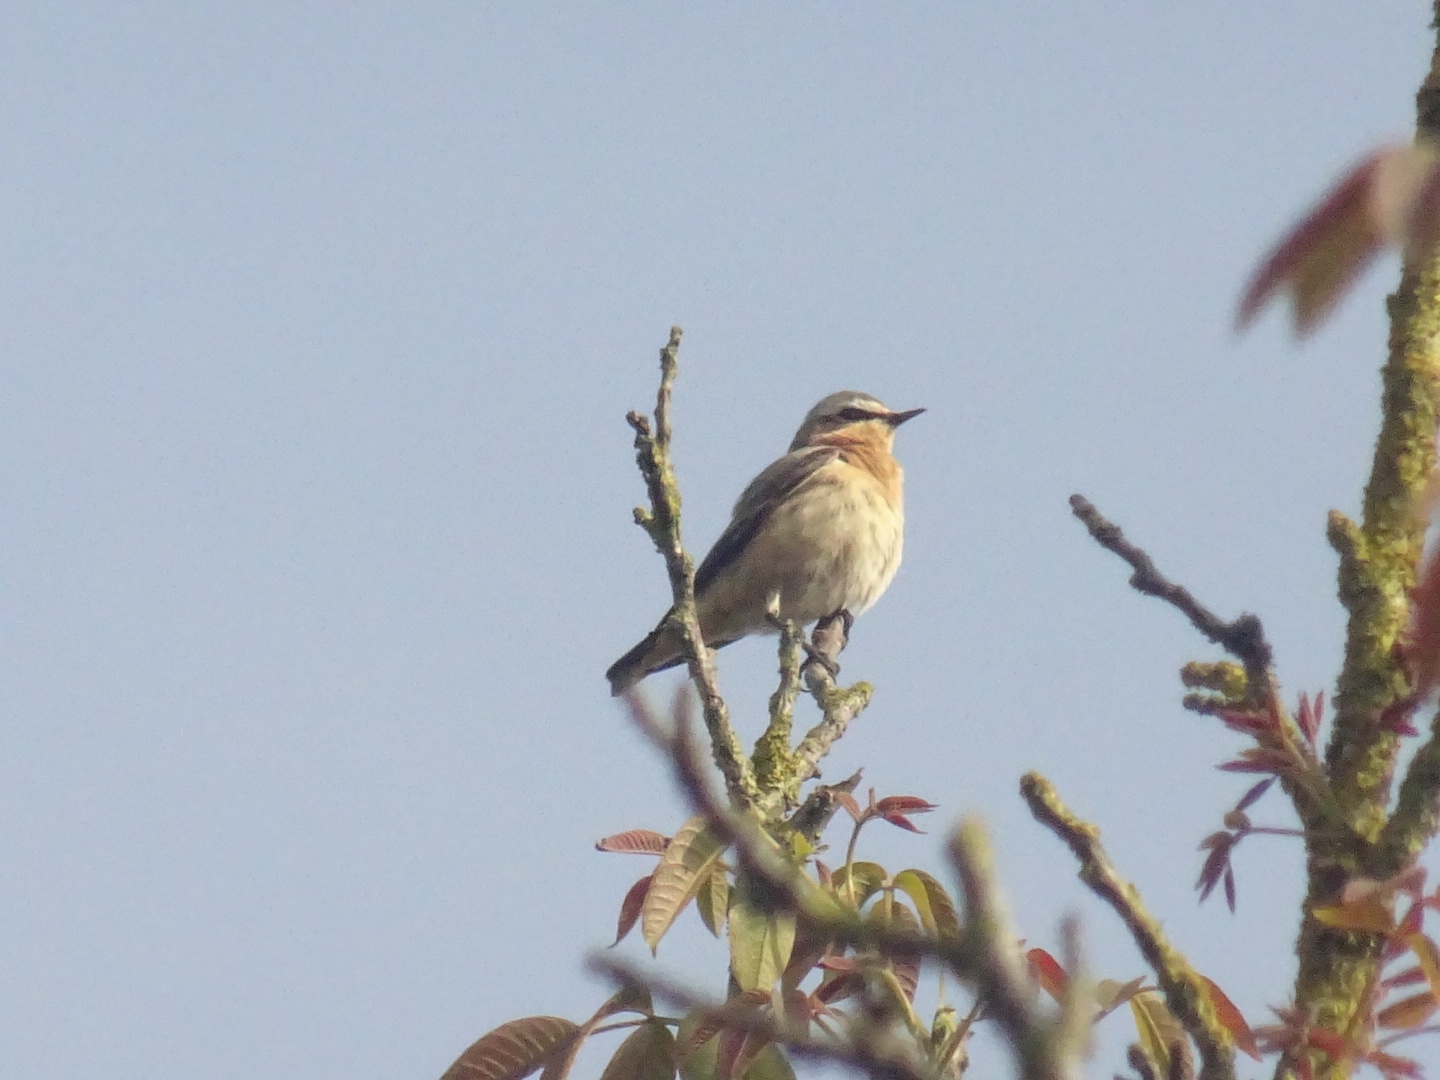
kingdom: Animalia
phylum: Chordata
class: Aves
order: Passeriformes
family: Muscicapidae
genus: Oenanthe
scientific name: Oenanthe oenanthe
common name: Northern wheatear
